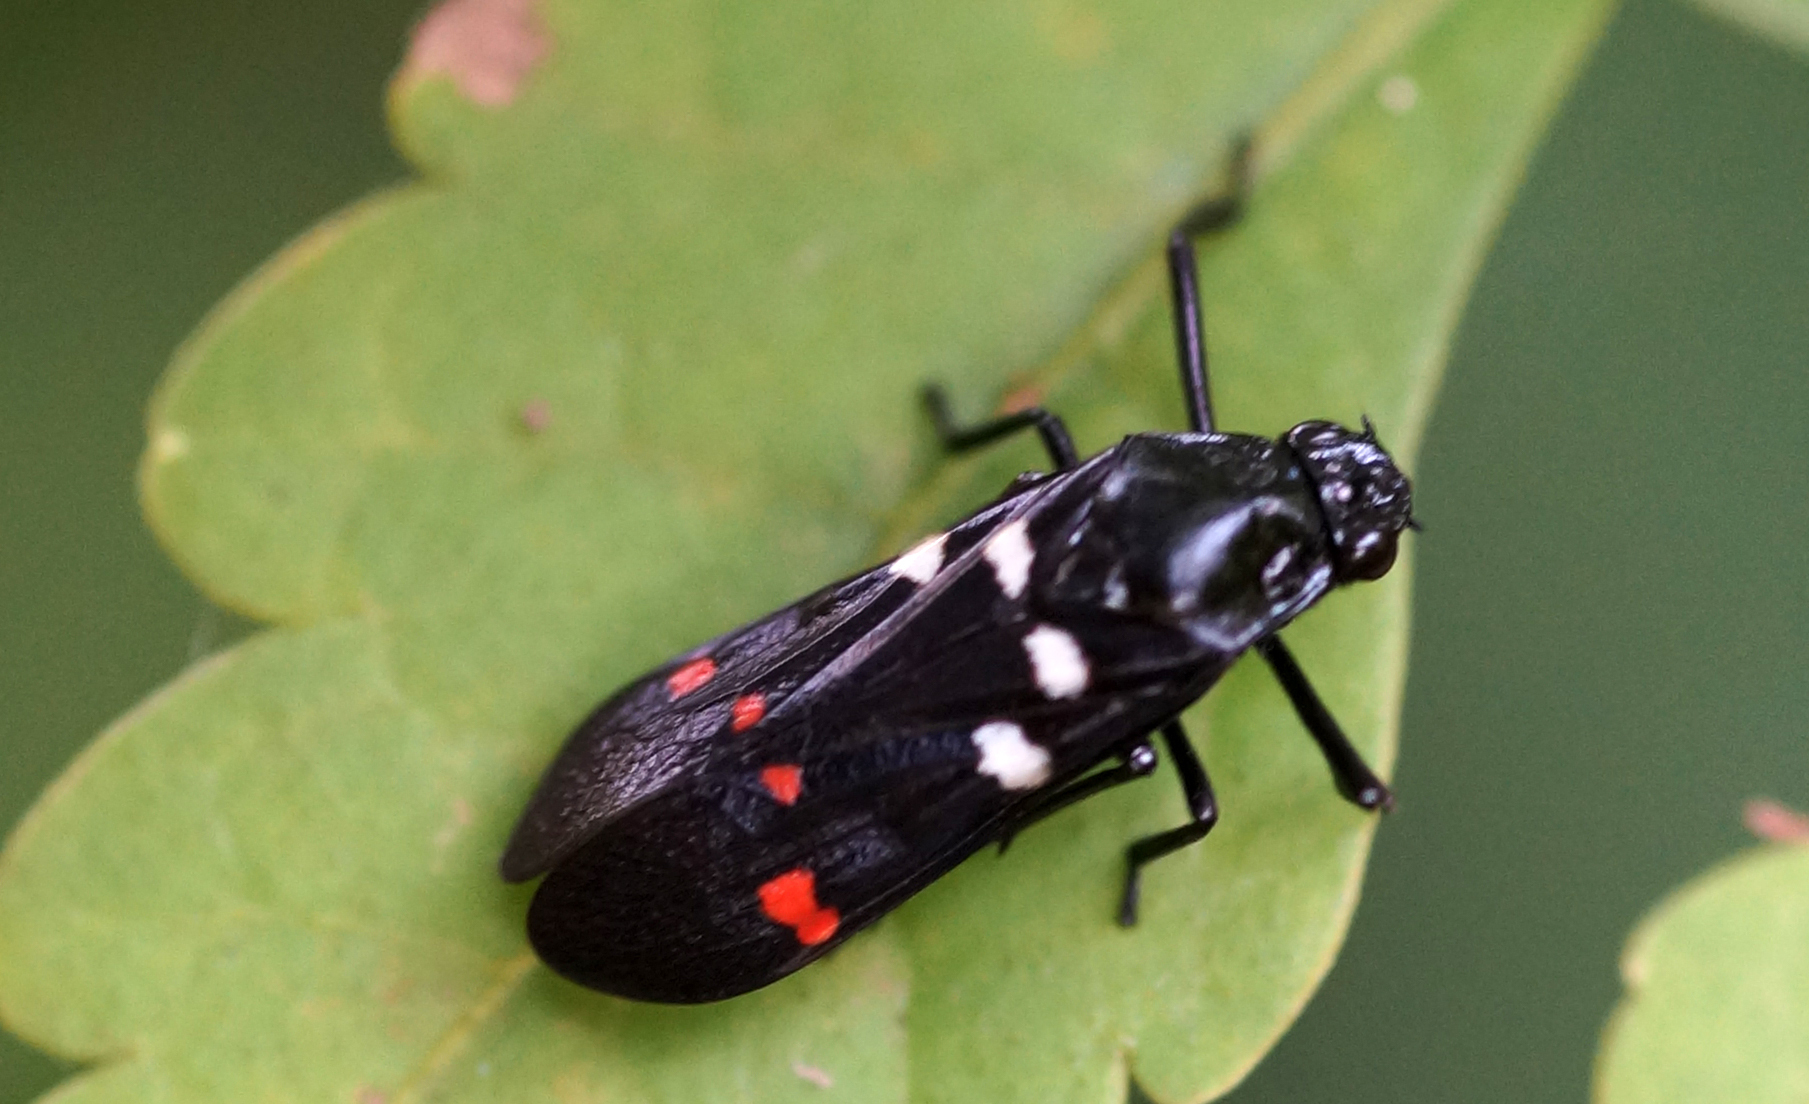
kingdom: Animalia
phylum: Arthropoda
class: Insecta
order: Hemiptera
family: Cercopidae
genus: Callitettix
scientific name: Callitettix versicolor
